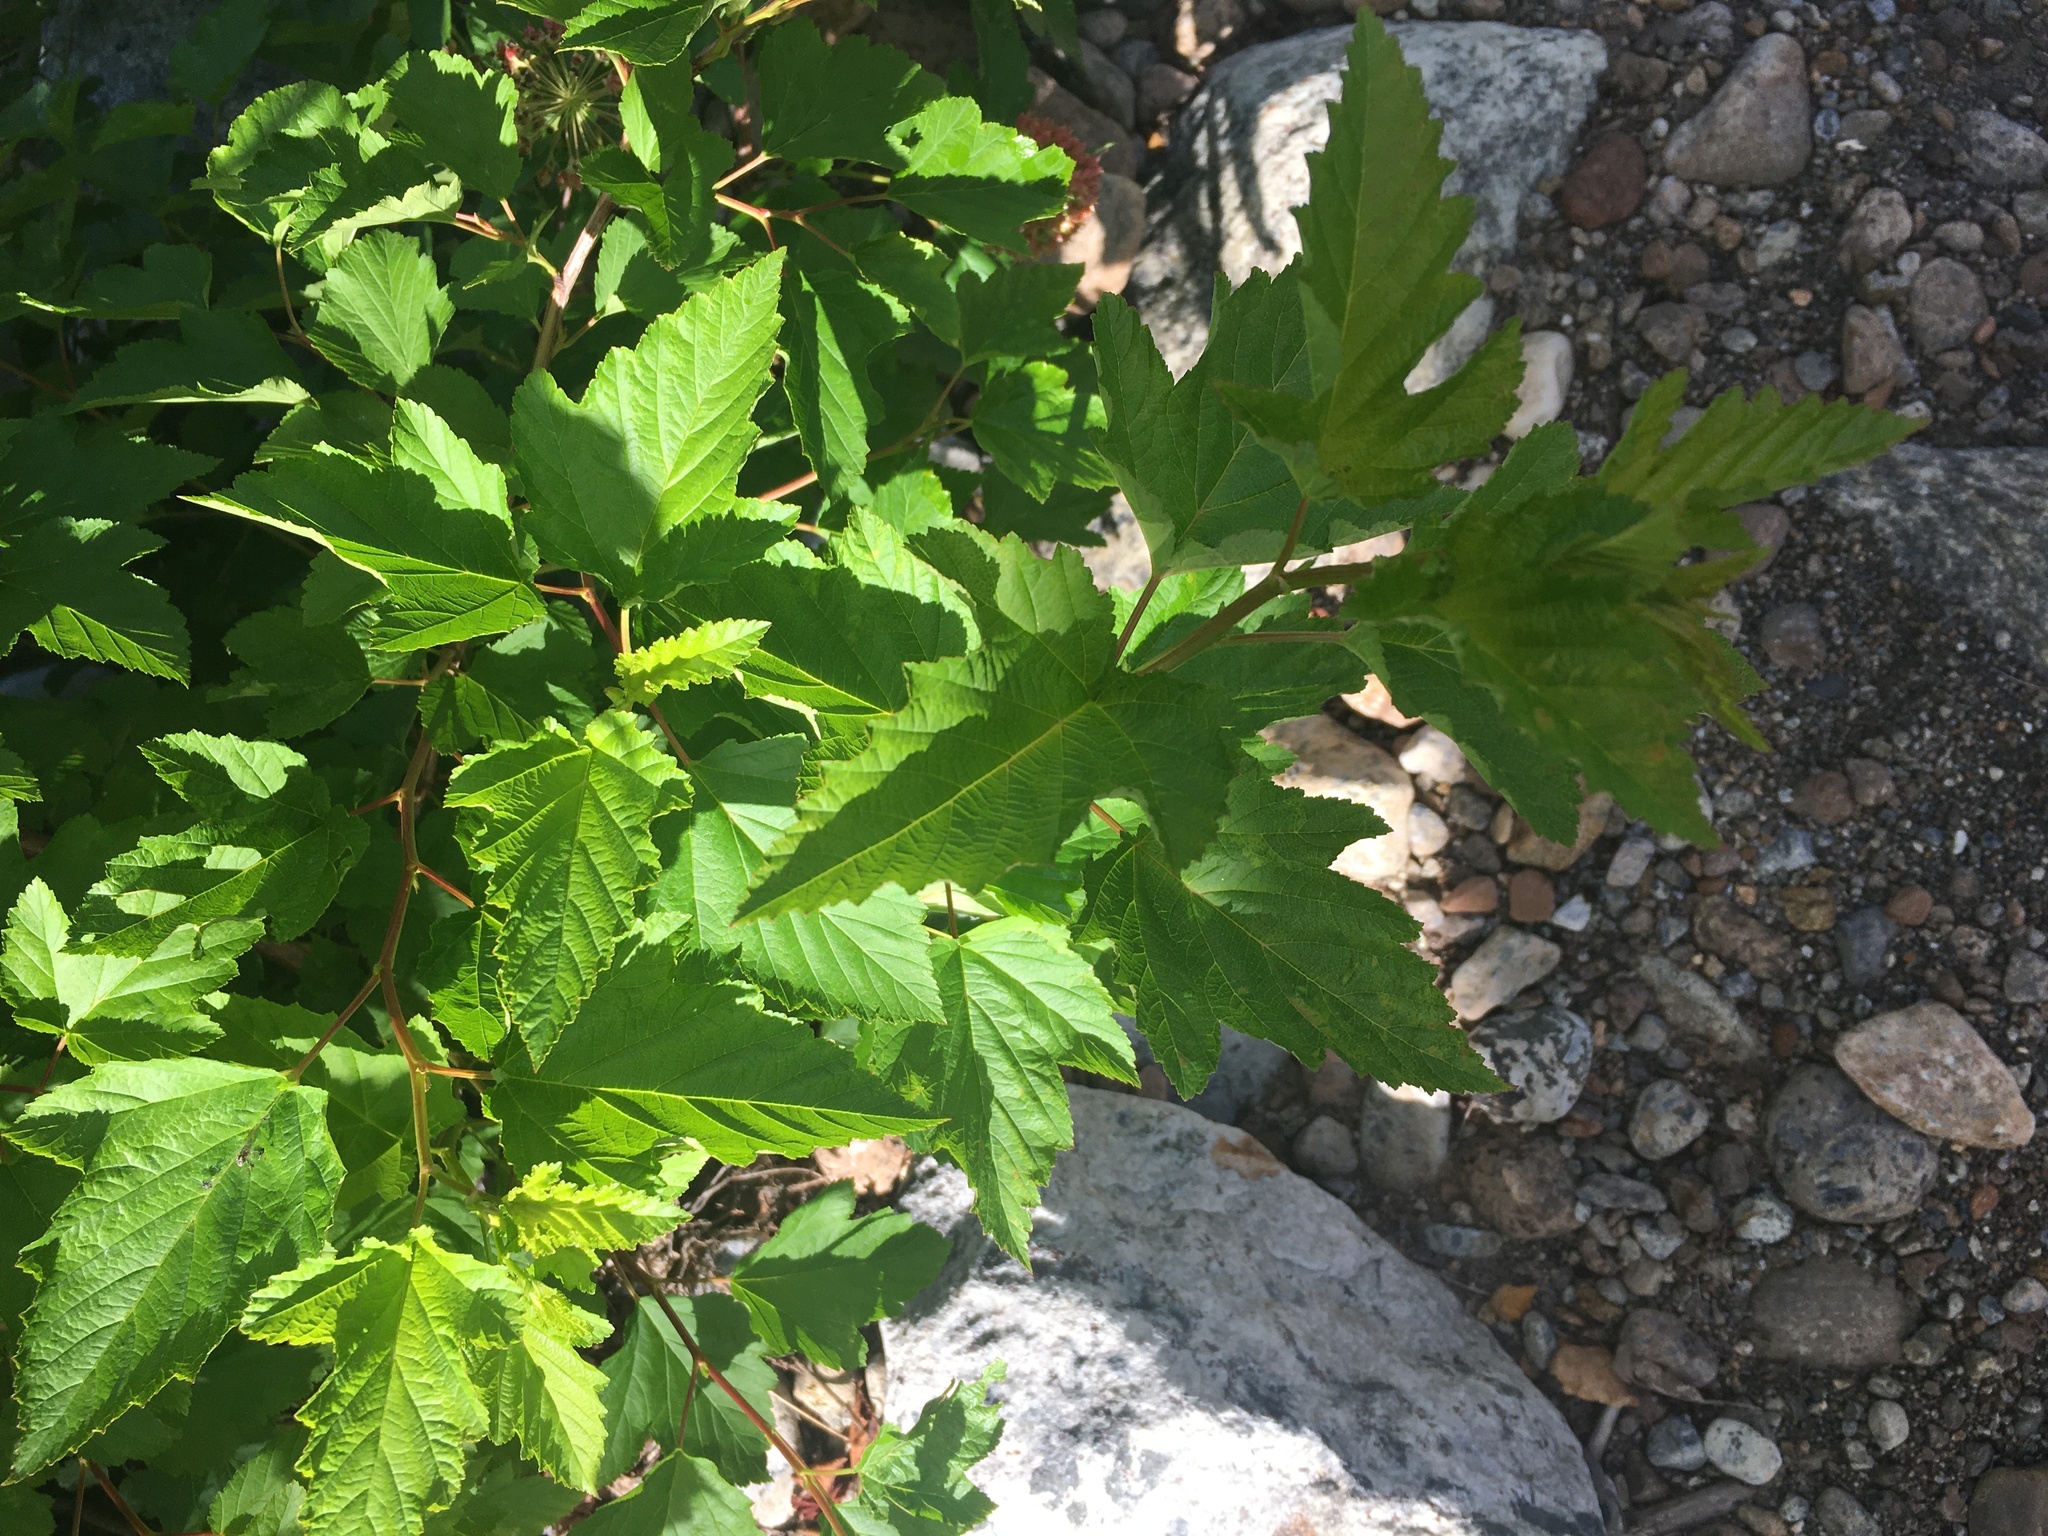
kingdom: Plantae
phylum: Tracheophyta
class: Magnoliopsida
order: Rosales
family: Rosaceae
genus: Physocarpus
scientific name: Physocarpus opulifolius
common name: Ninebark
